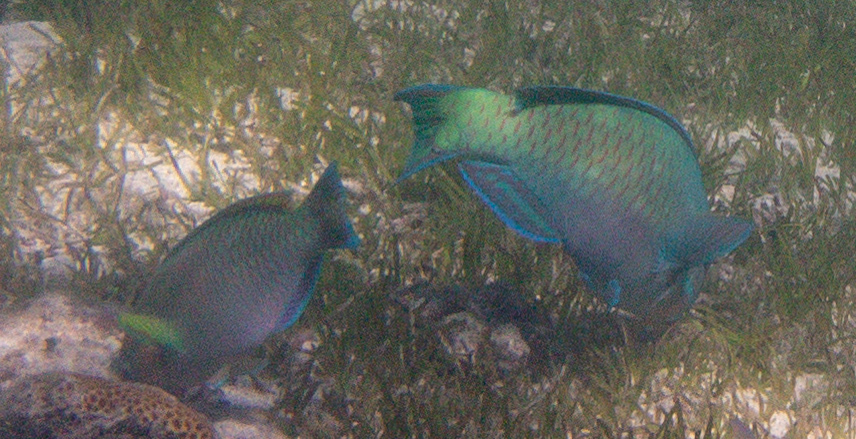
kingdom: Animalia
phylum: Chordata
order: Perciformes
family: Scaridae
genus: Scarus
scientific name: Scarus rivulatus
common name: Surf parrotfish
